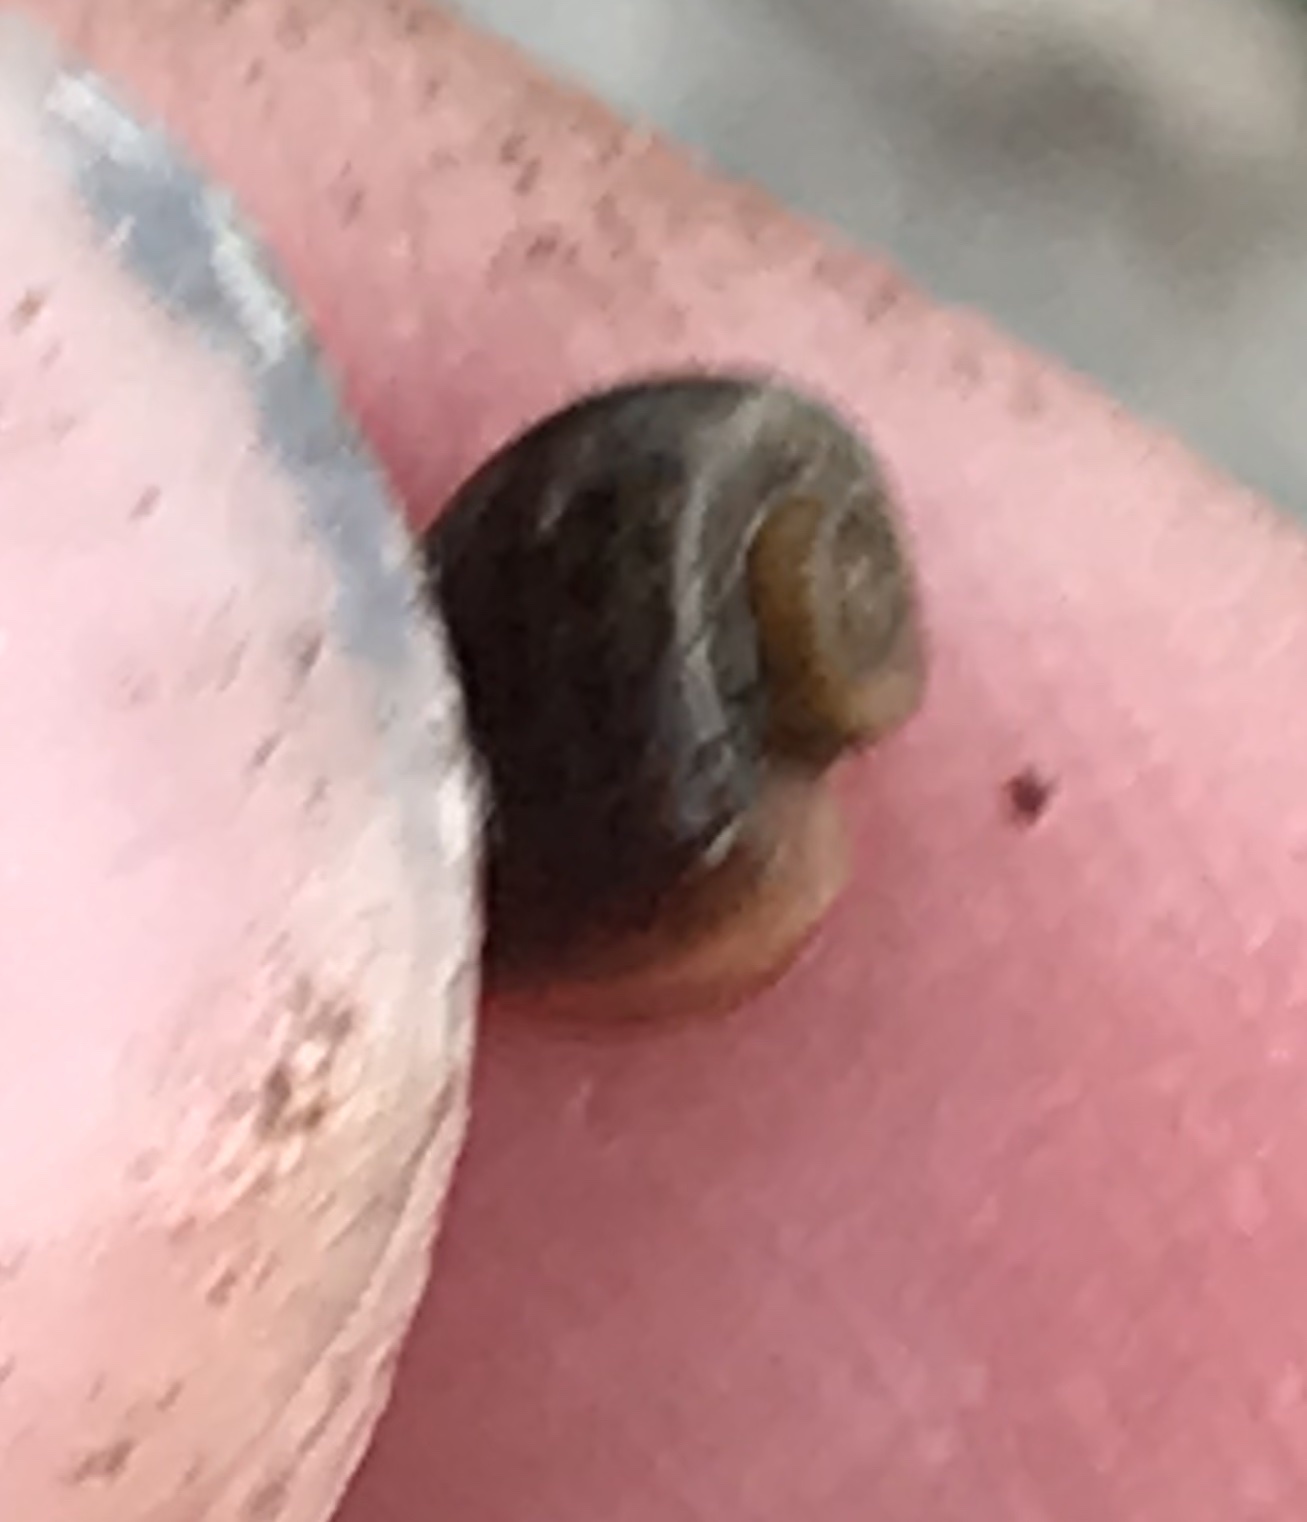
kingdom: Animalia
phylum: Mollusca
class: Gastropoda
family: Planorbidae
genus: Planorbella
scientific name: Planorbella duryi
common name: Seminole rams-horn
